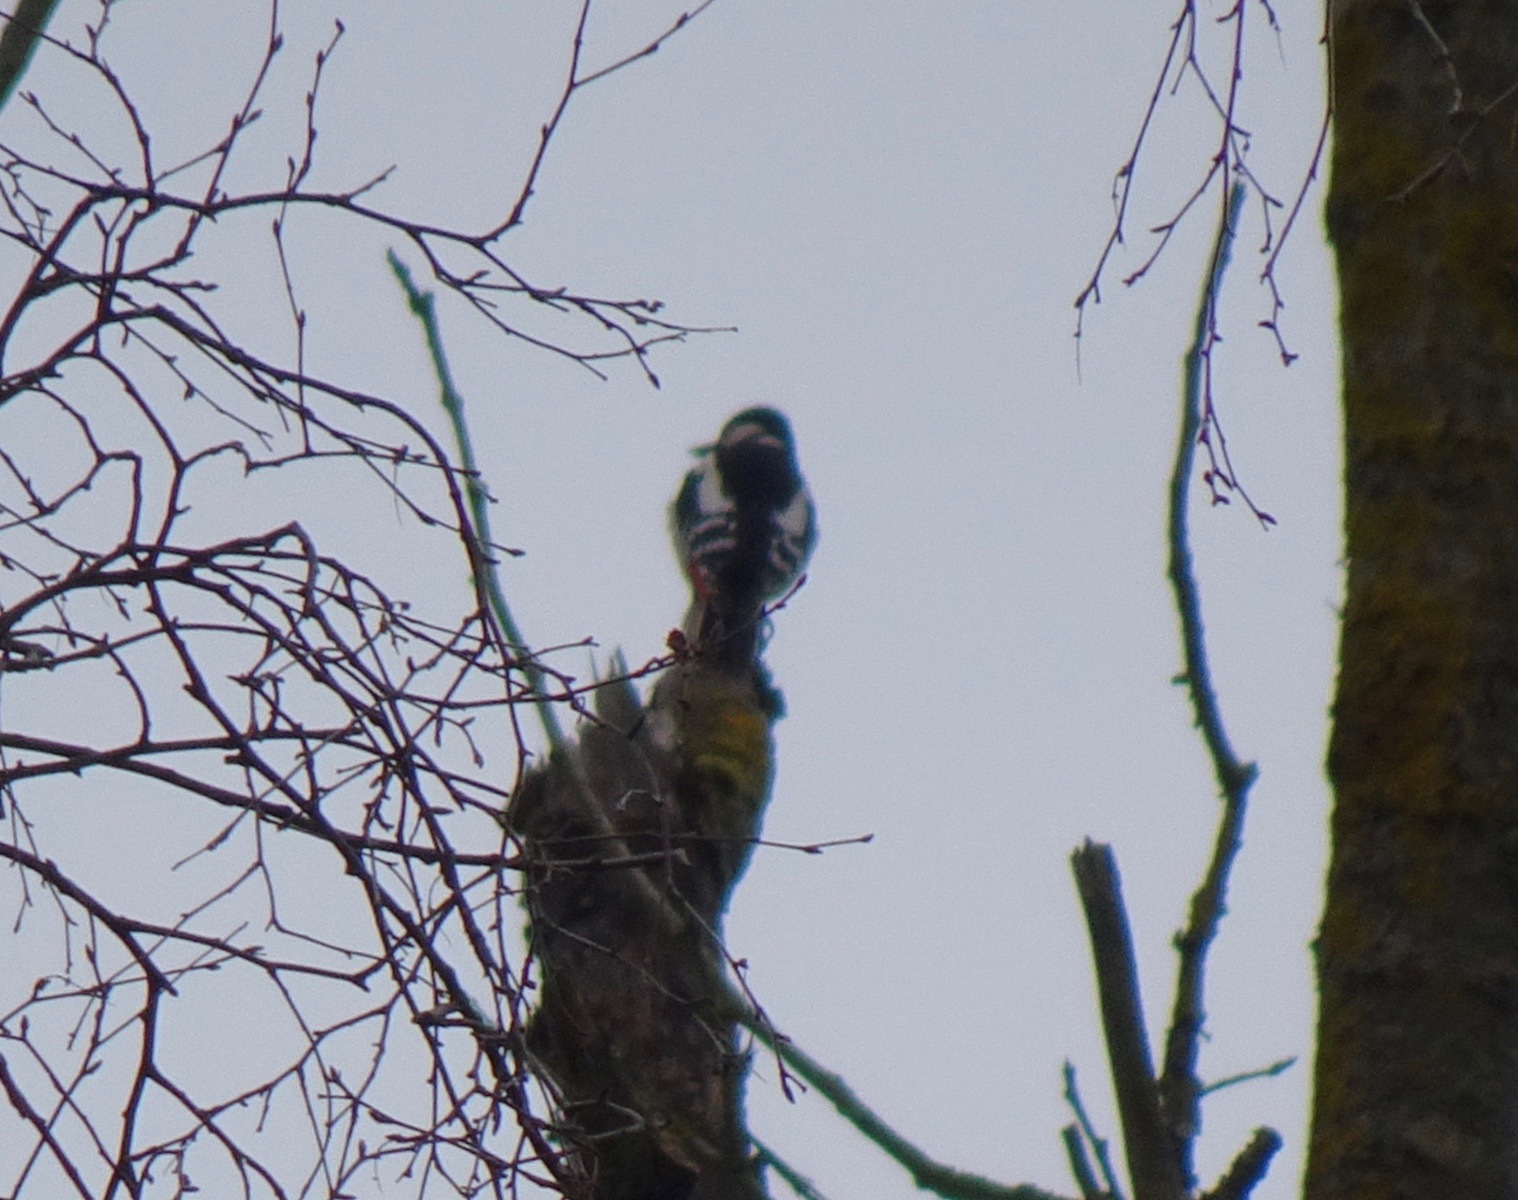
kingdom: Animalia
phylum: Chordata
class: Aves
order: Piciformes
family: Picidae
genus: Dendrocopos
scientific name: Dendrocopos major
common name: Great spotted woodpecker
